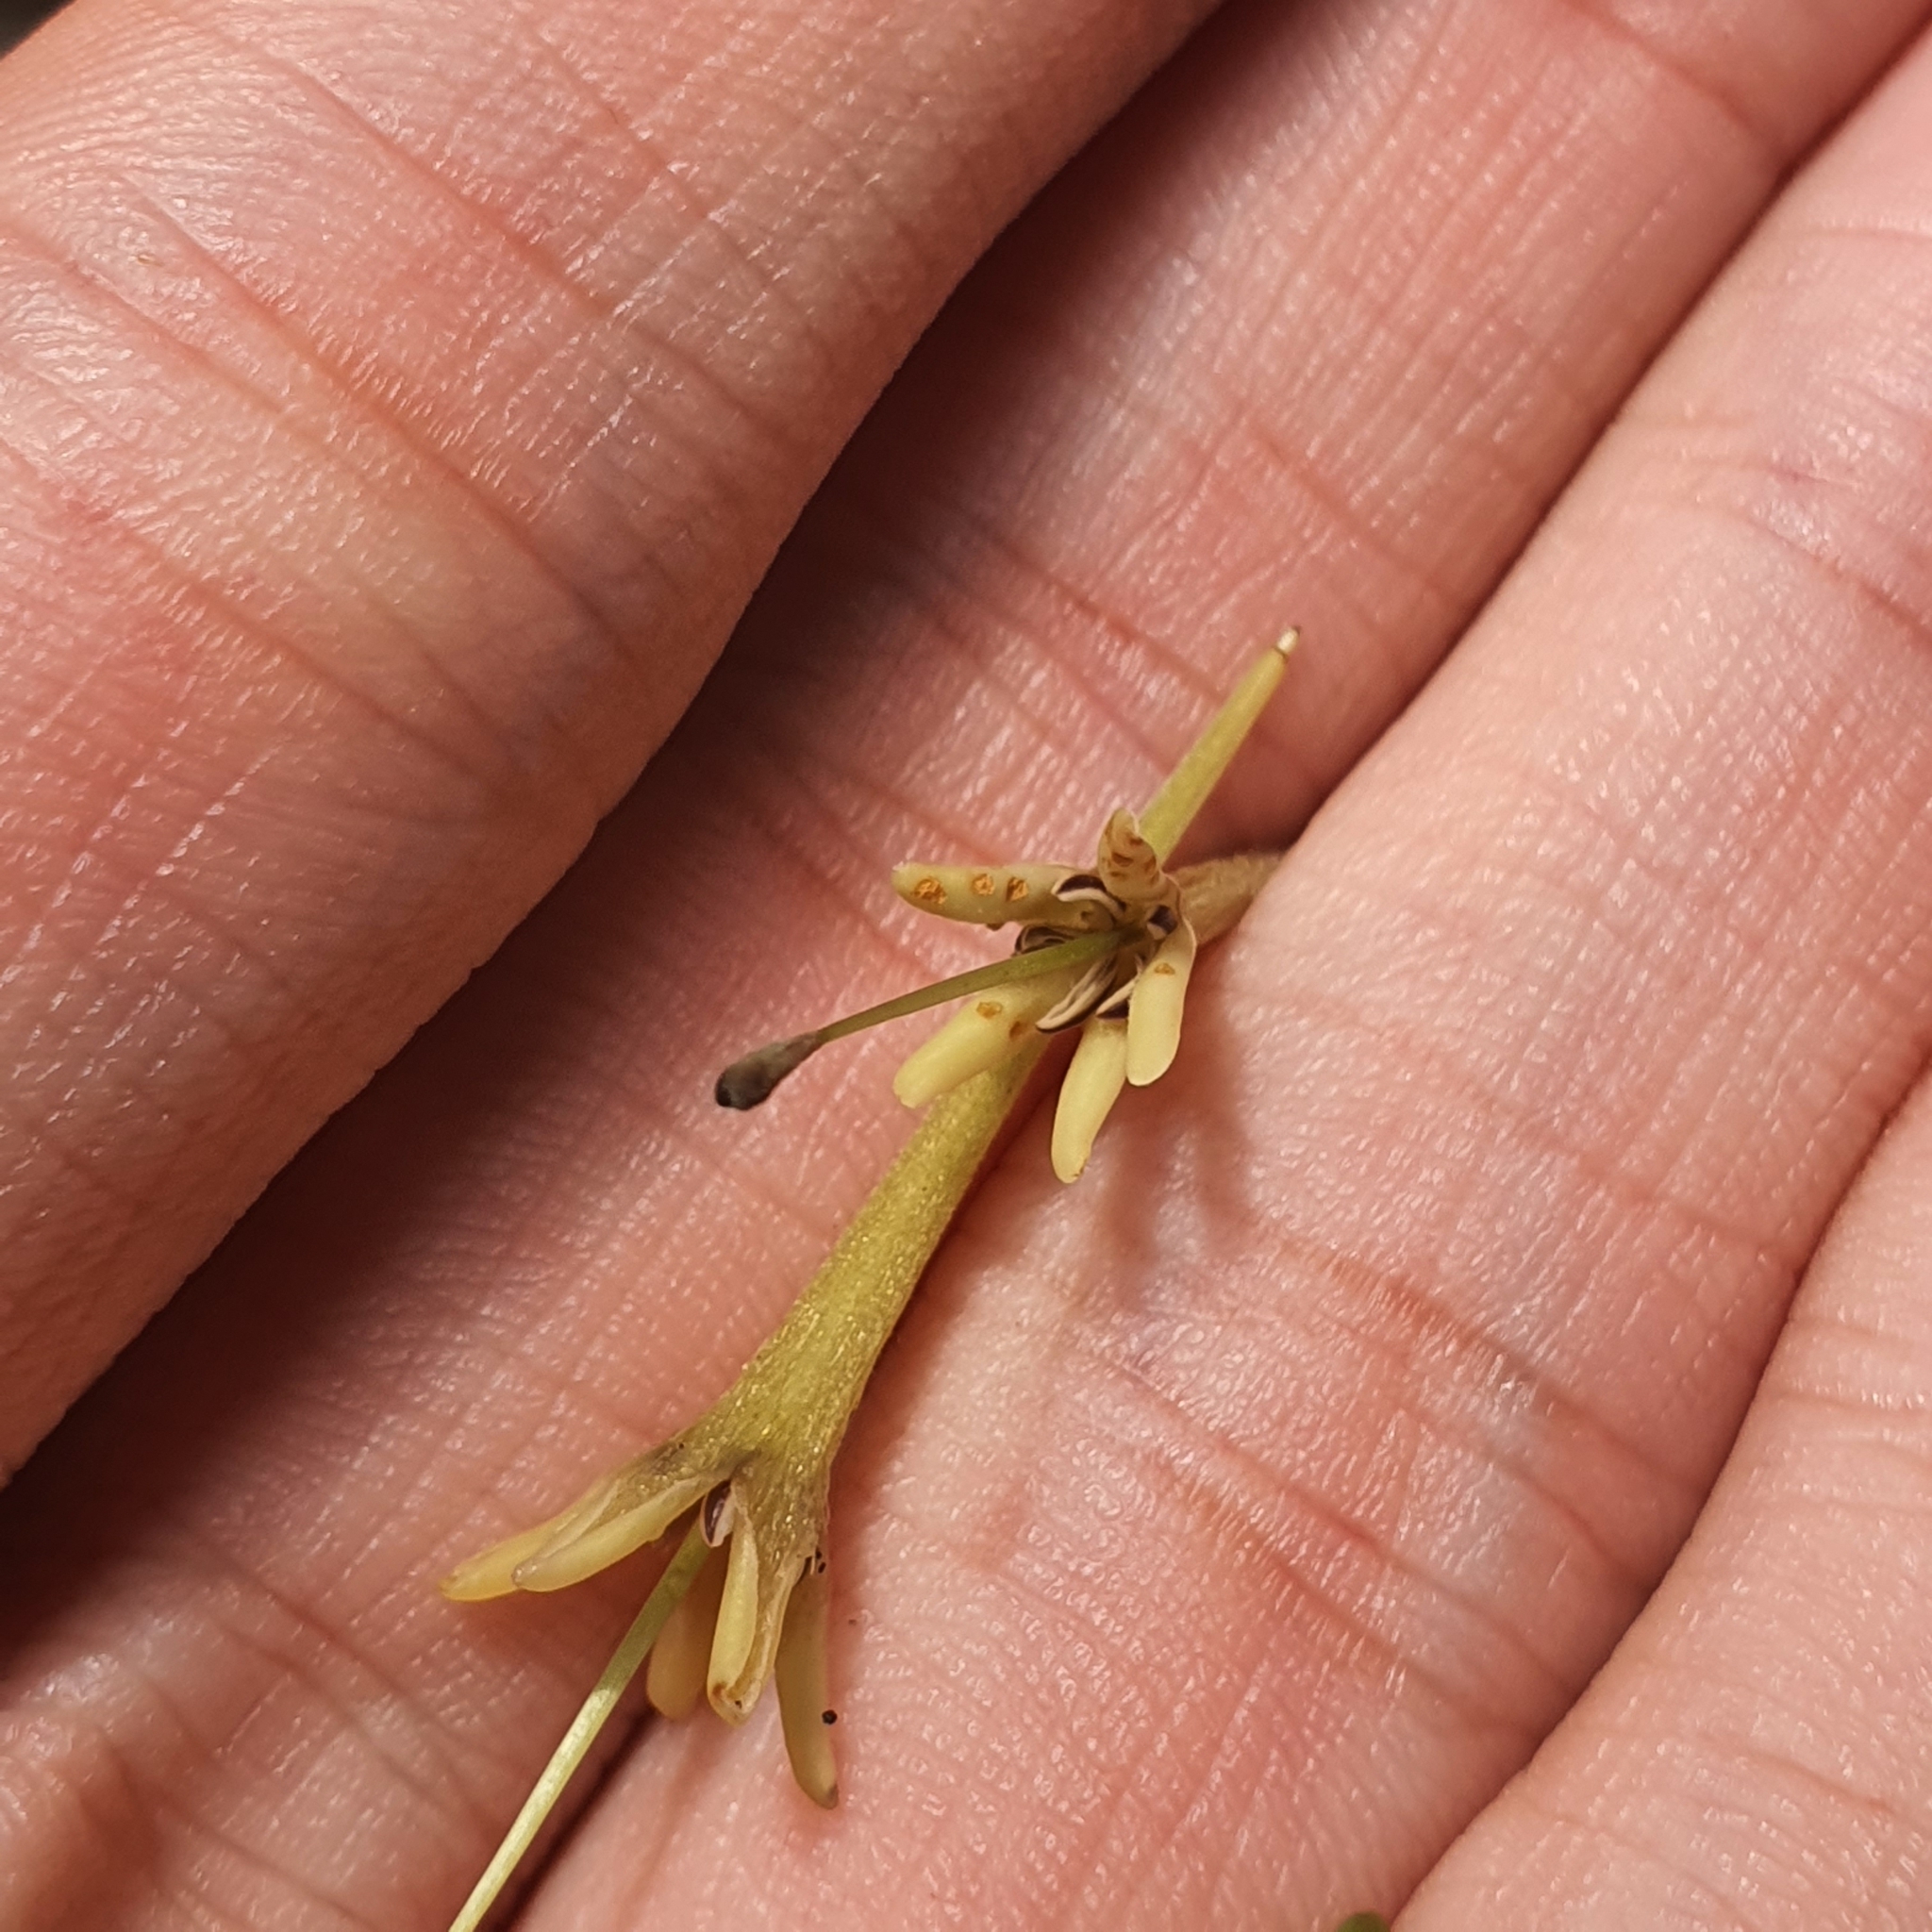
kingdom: Plantae
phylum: Tracheophyta
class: Magnoliopsida
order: Gentianales
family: Rubiaceae
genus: Uncaria
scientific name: Uncaria cordata
